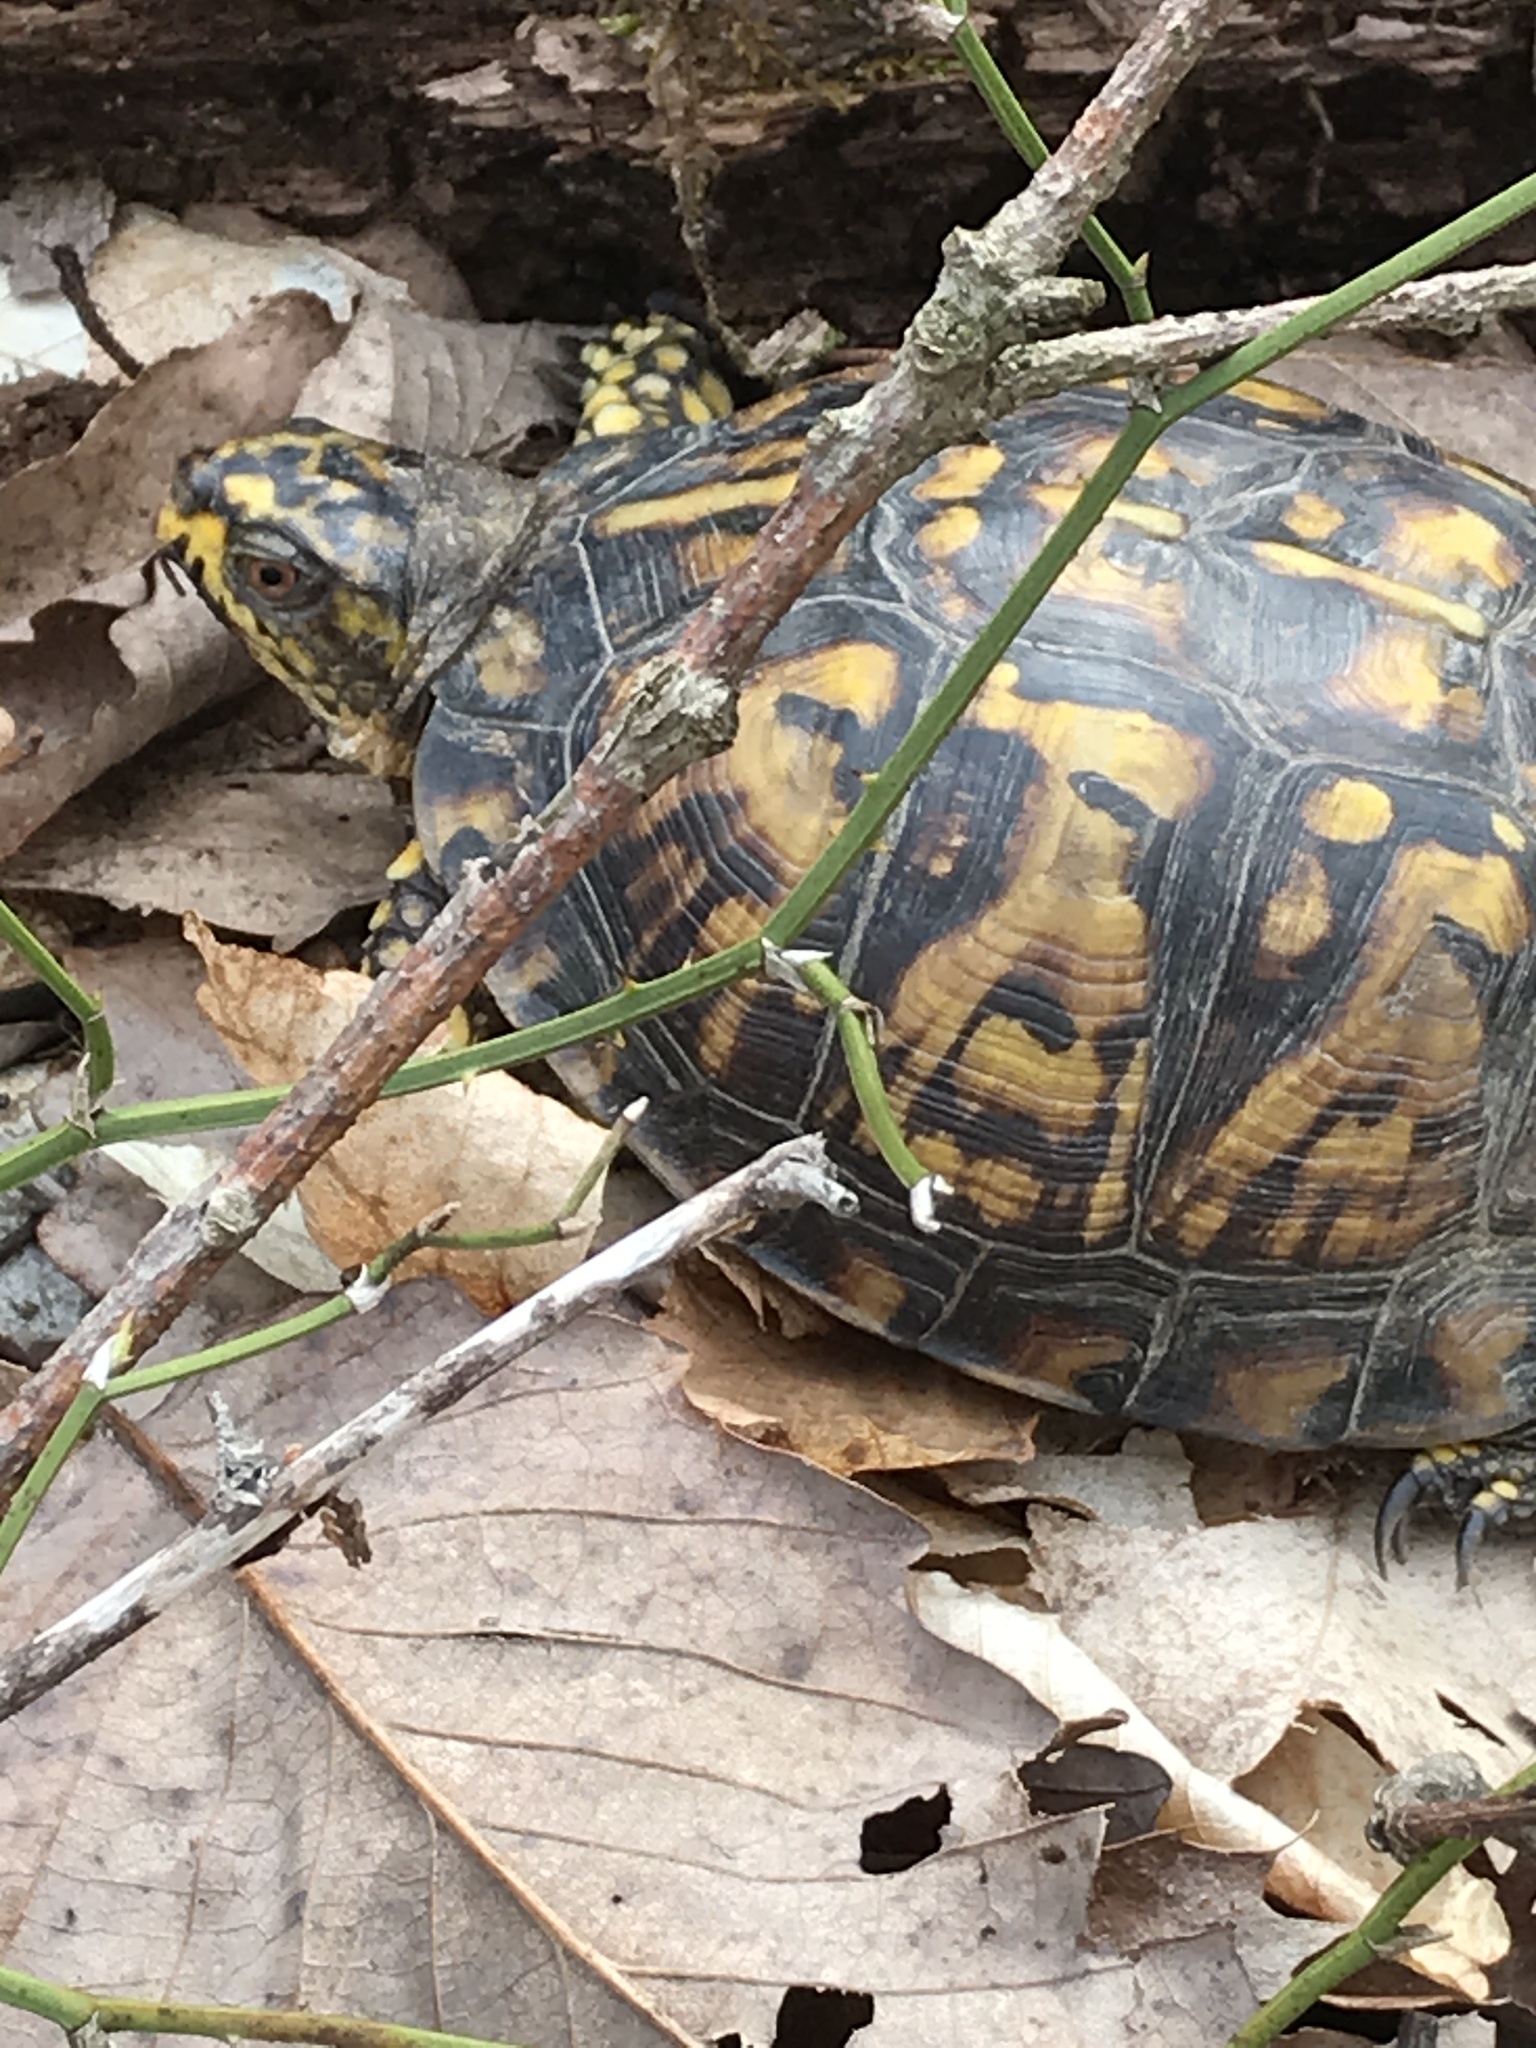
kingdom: Animalia
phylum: Chordata
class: Testudines
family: Emydidae
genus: Terrapene
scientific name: Terrapene carolina
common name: Common box turtle
